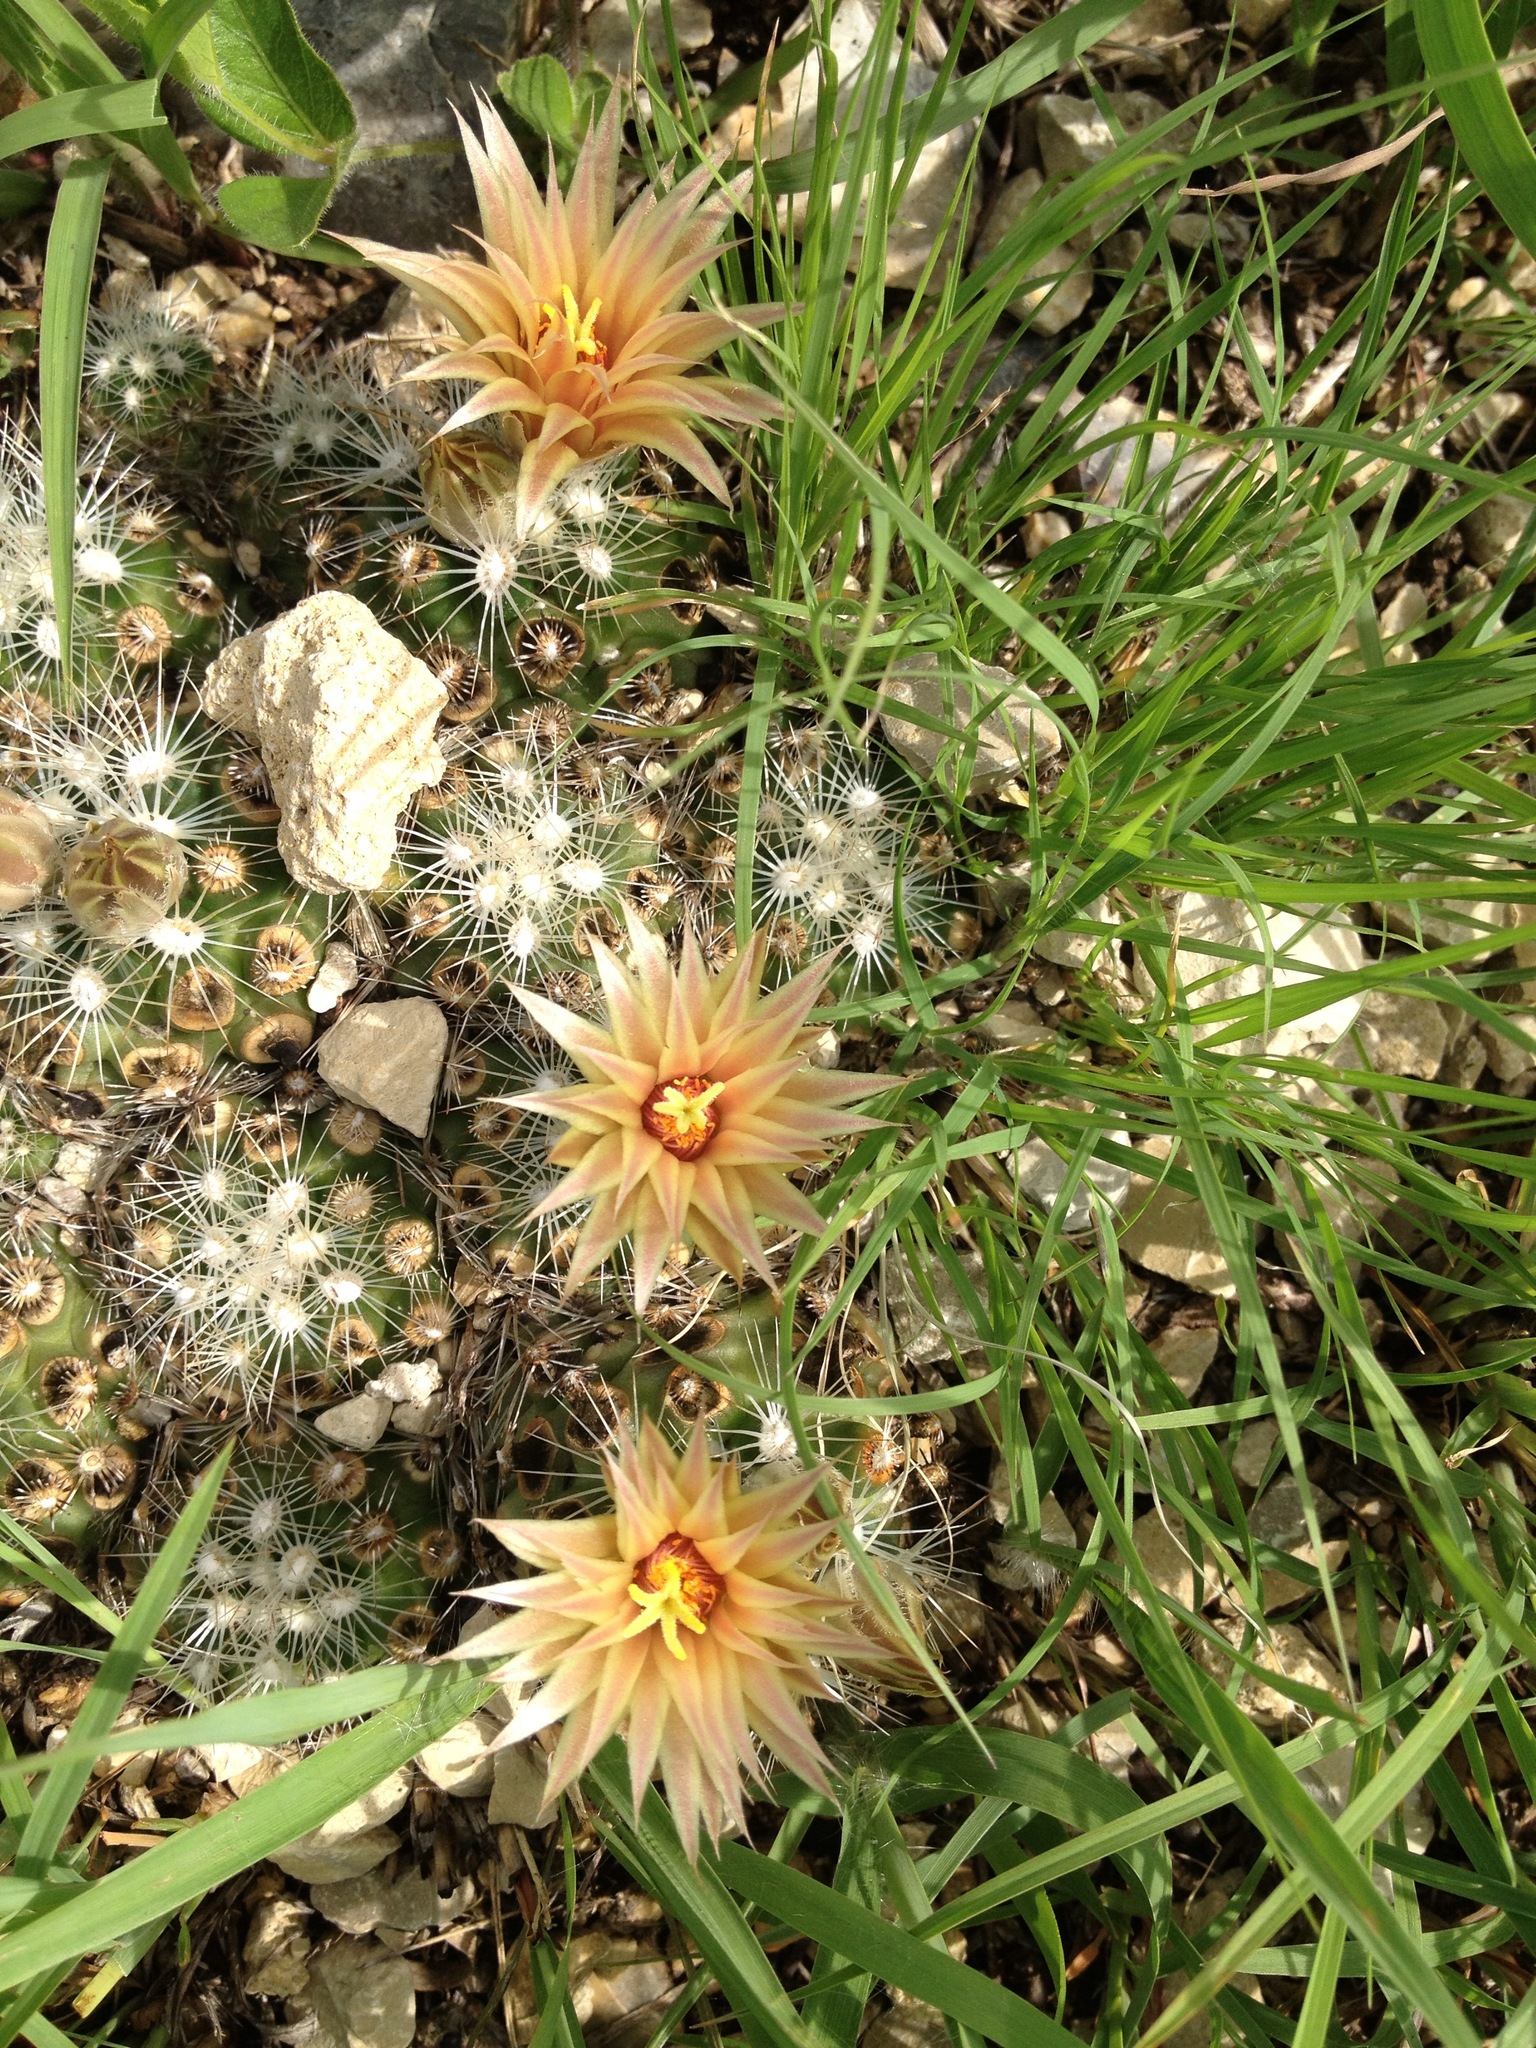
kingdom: Plantae
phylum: Tracheophyta
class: Magnoliopsida
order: Caryophyllales
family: Cactaceae
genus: Pelecyphora
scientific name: Pelecyphora missouriensis
